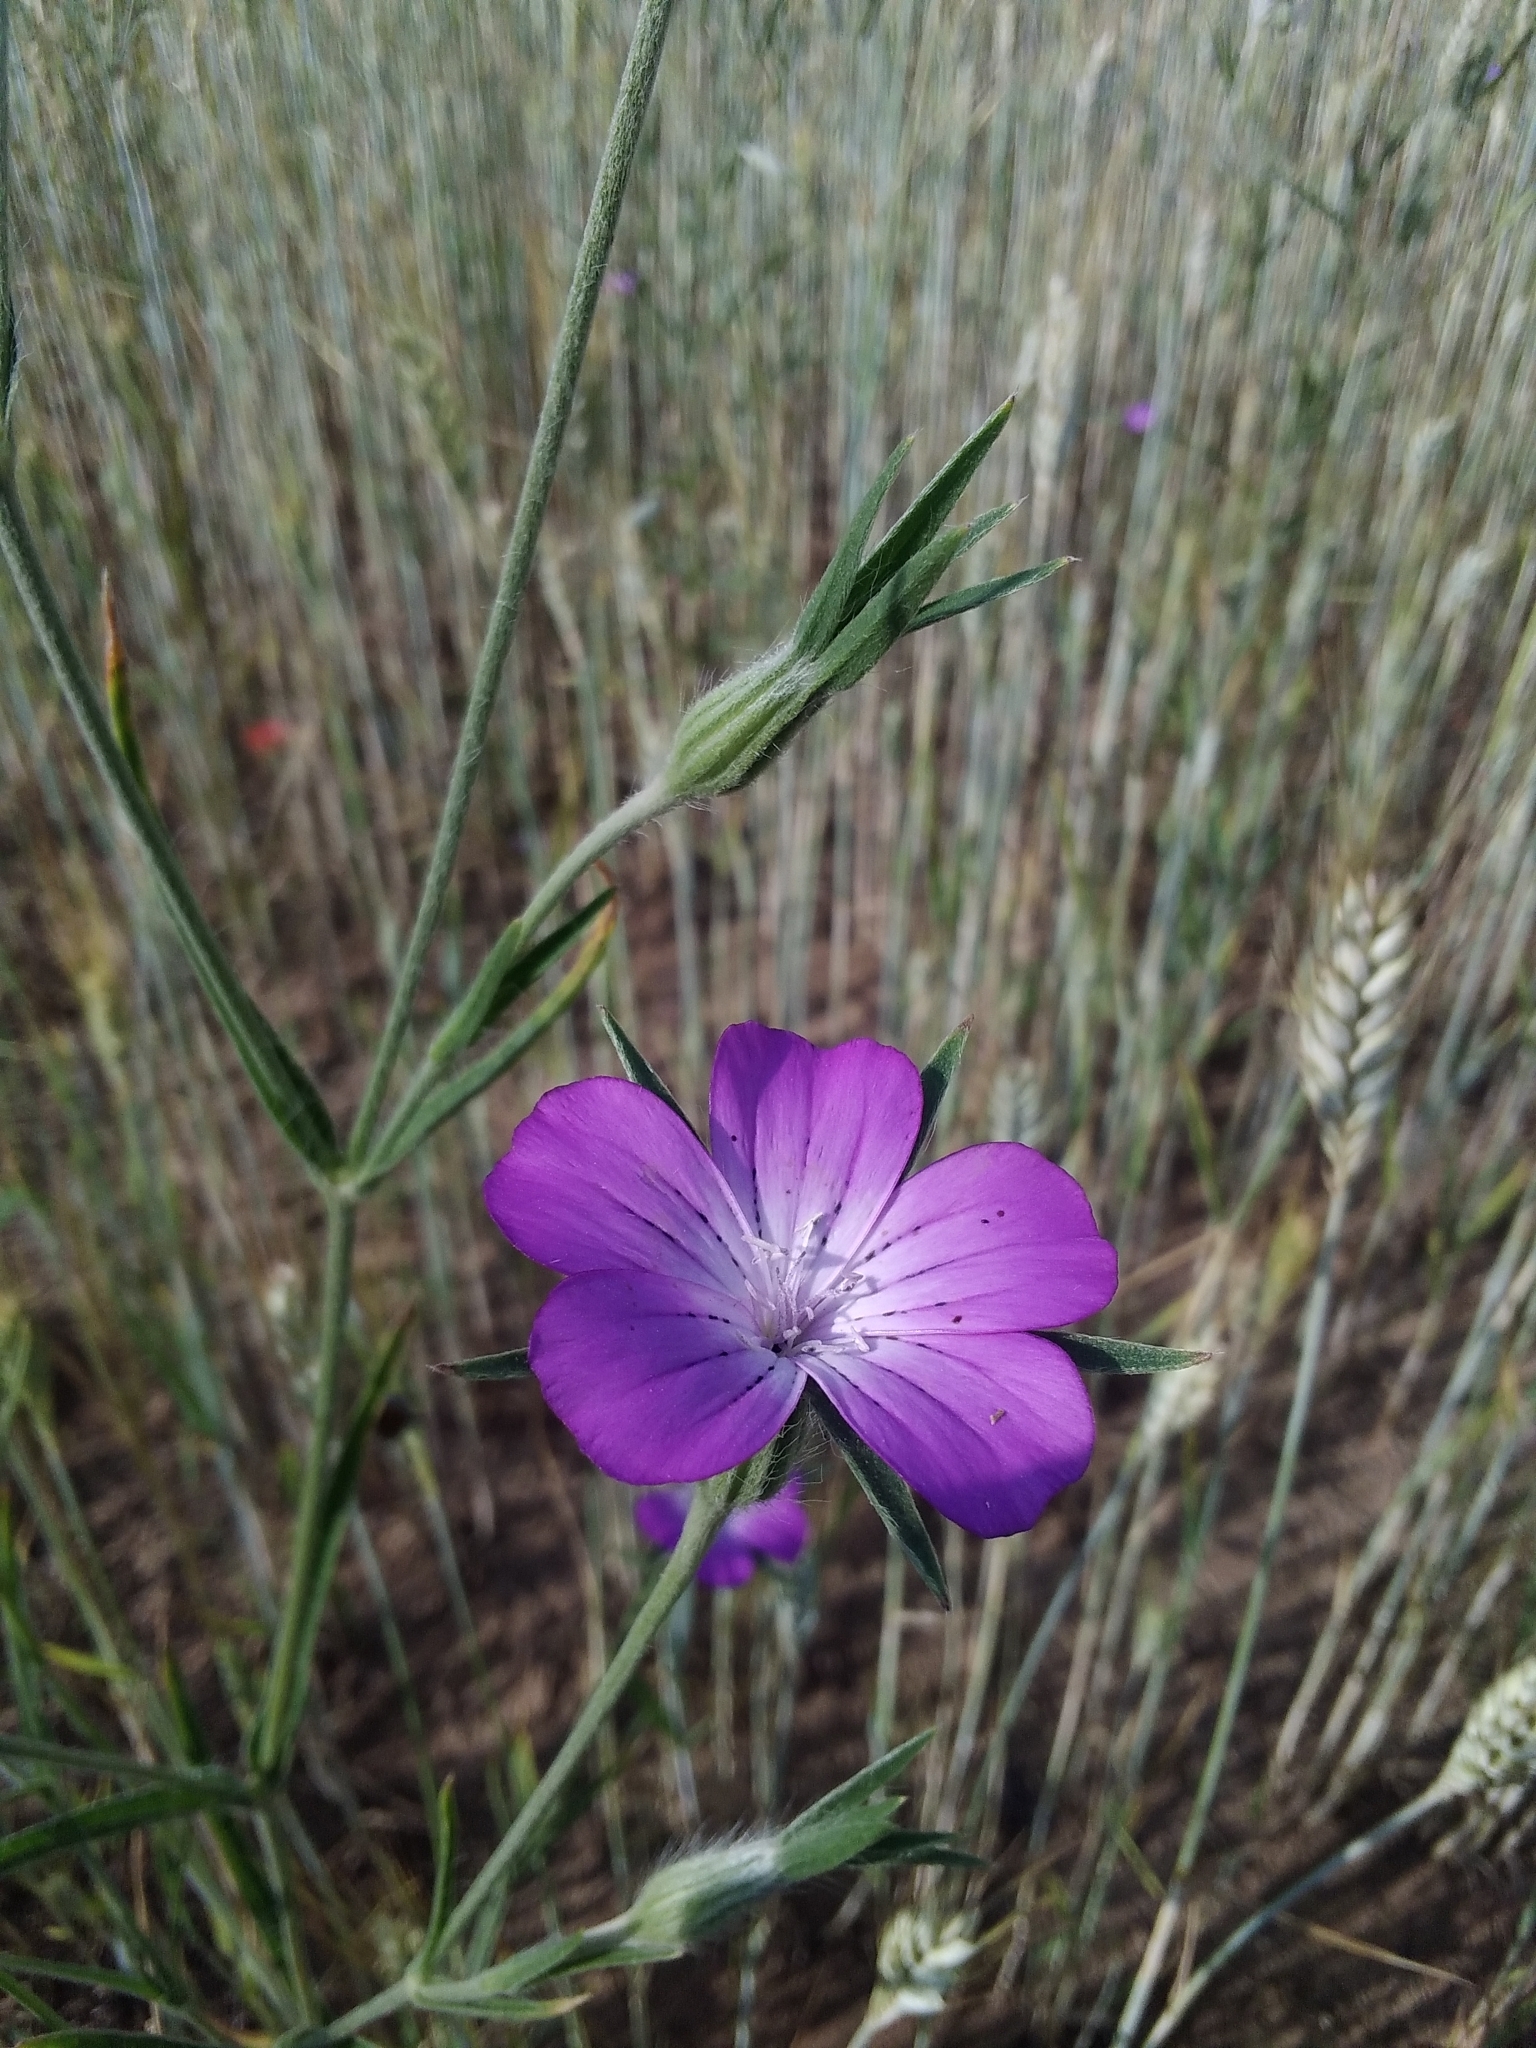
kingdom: Plantae
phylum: Tracheophyta
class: Magnoliopsida
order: Caryophyllales
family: Caryophyllaceae
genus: Agrostemma
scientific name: Agrostemma githago
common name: Common corncockle
